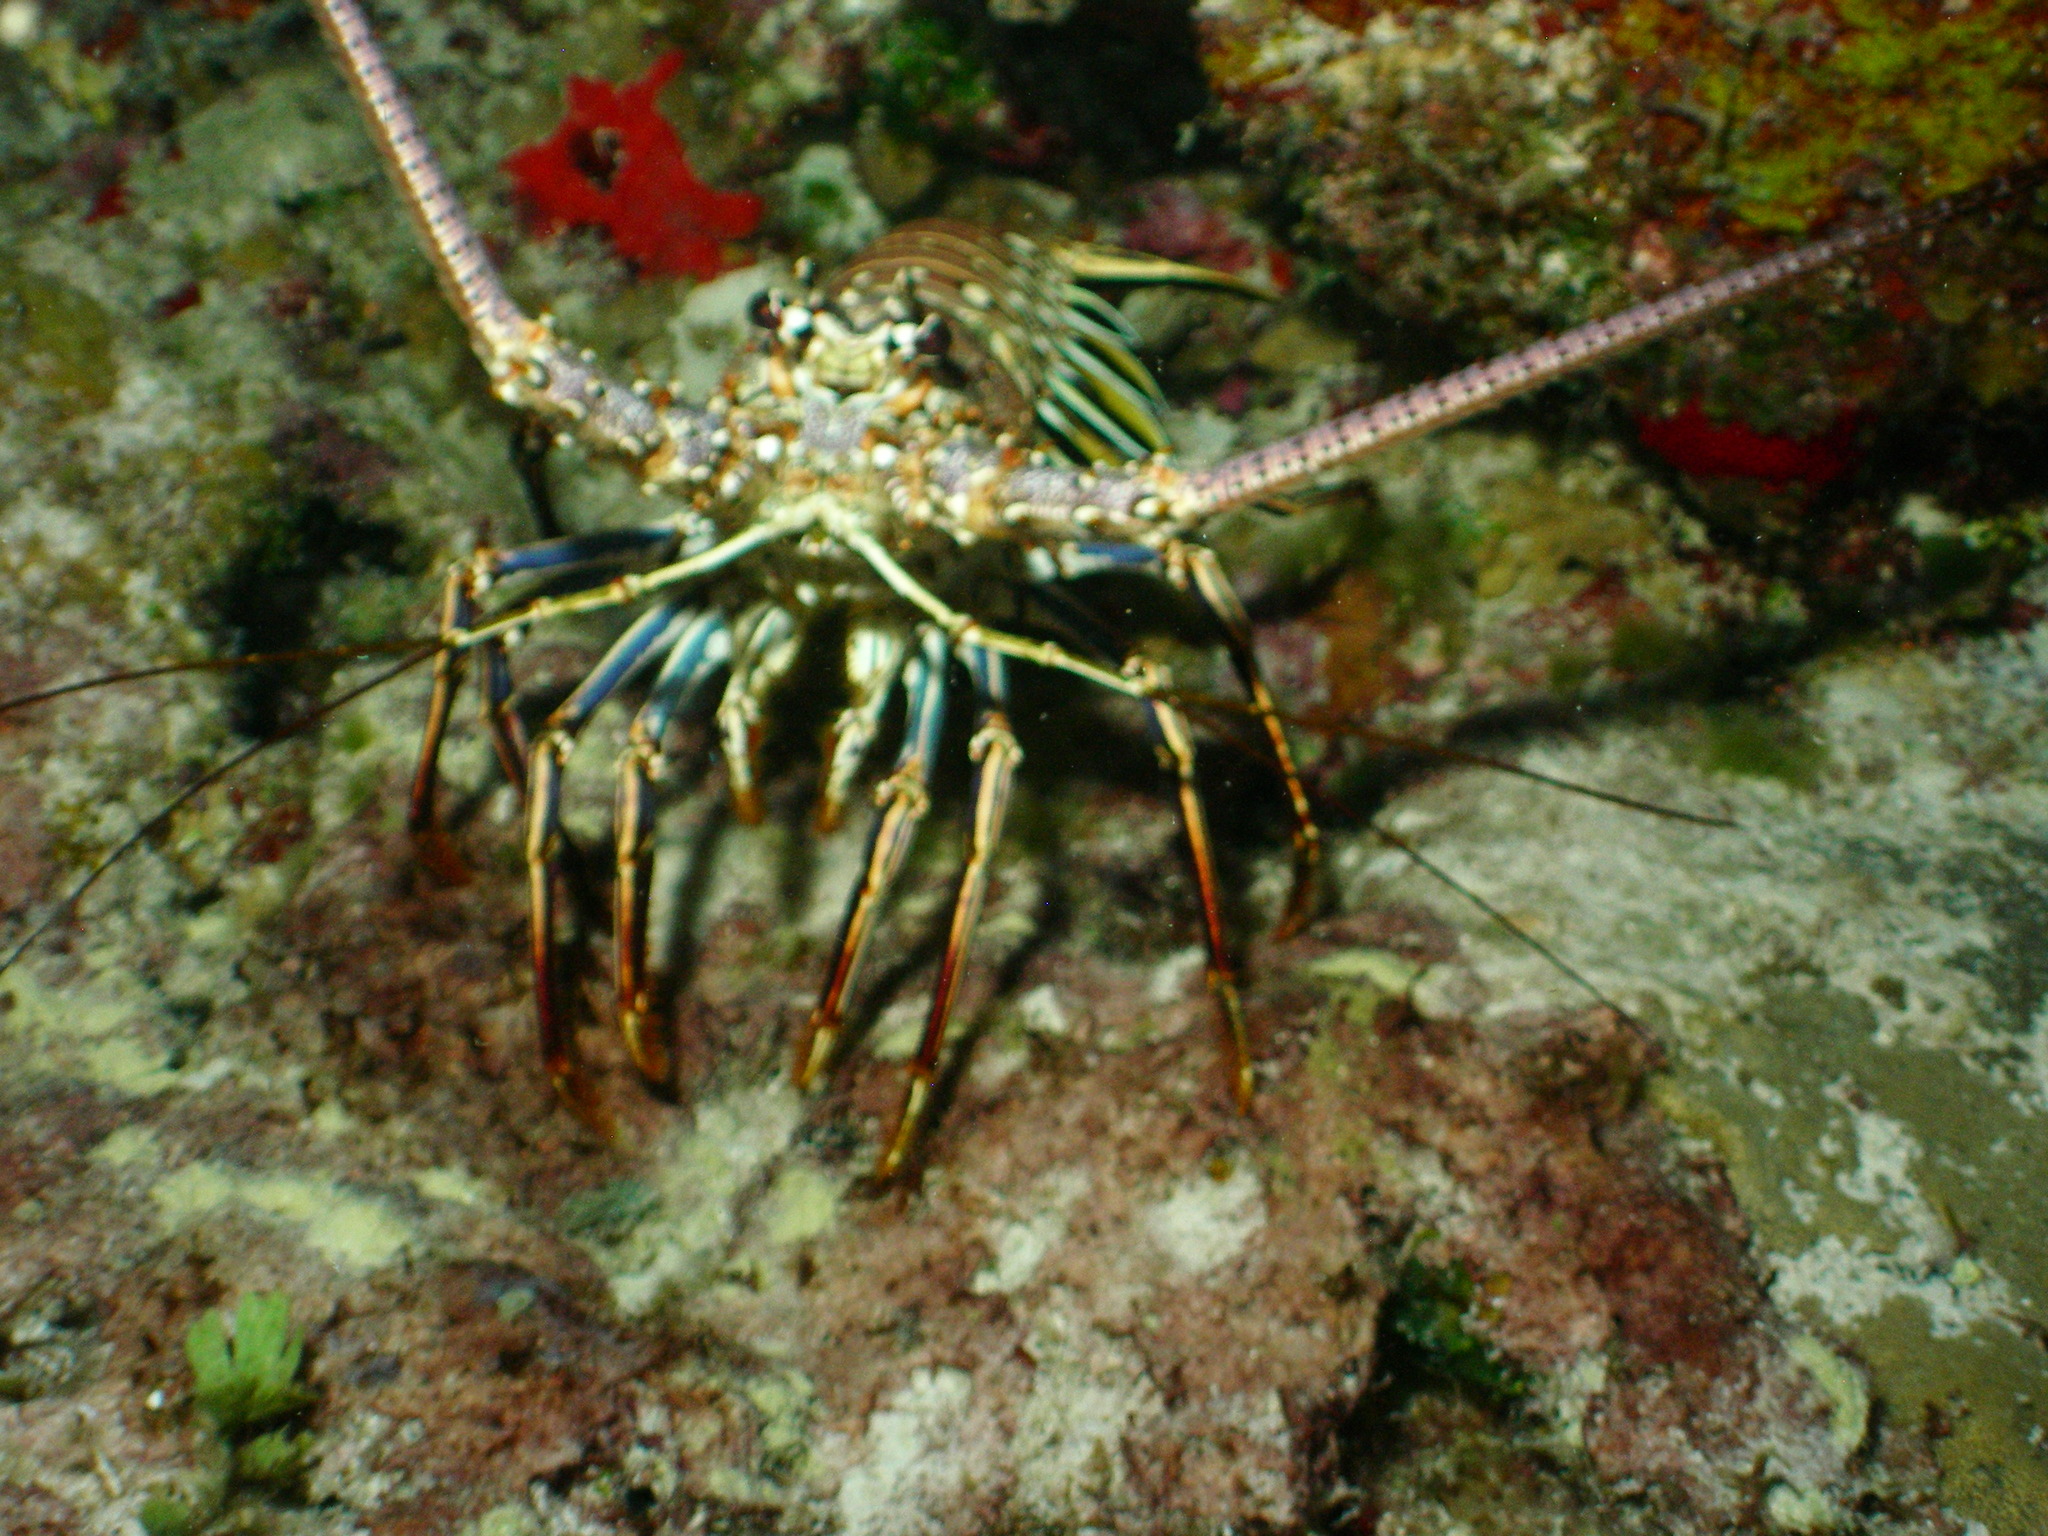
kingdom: Animalia
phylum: Arthropoda
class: Malacostraca
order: Decapoda
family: Palinuridae
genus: Panulirus
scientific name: Panulirus argus
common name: Caribbean spiny lobster
